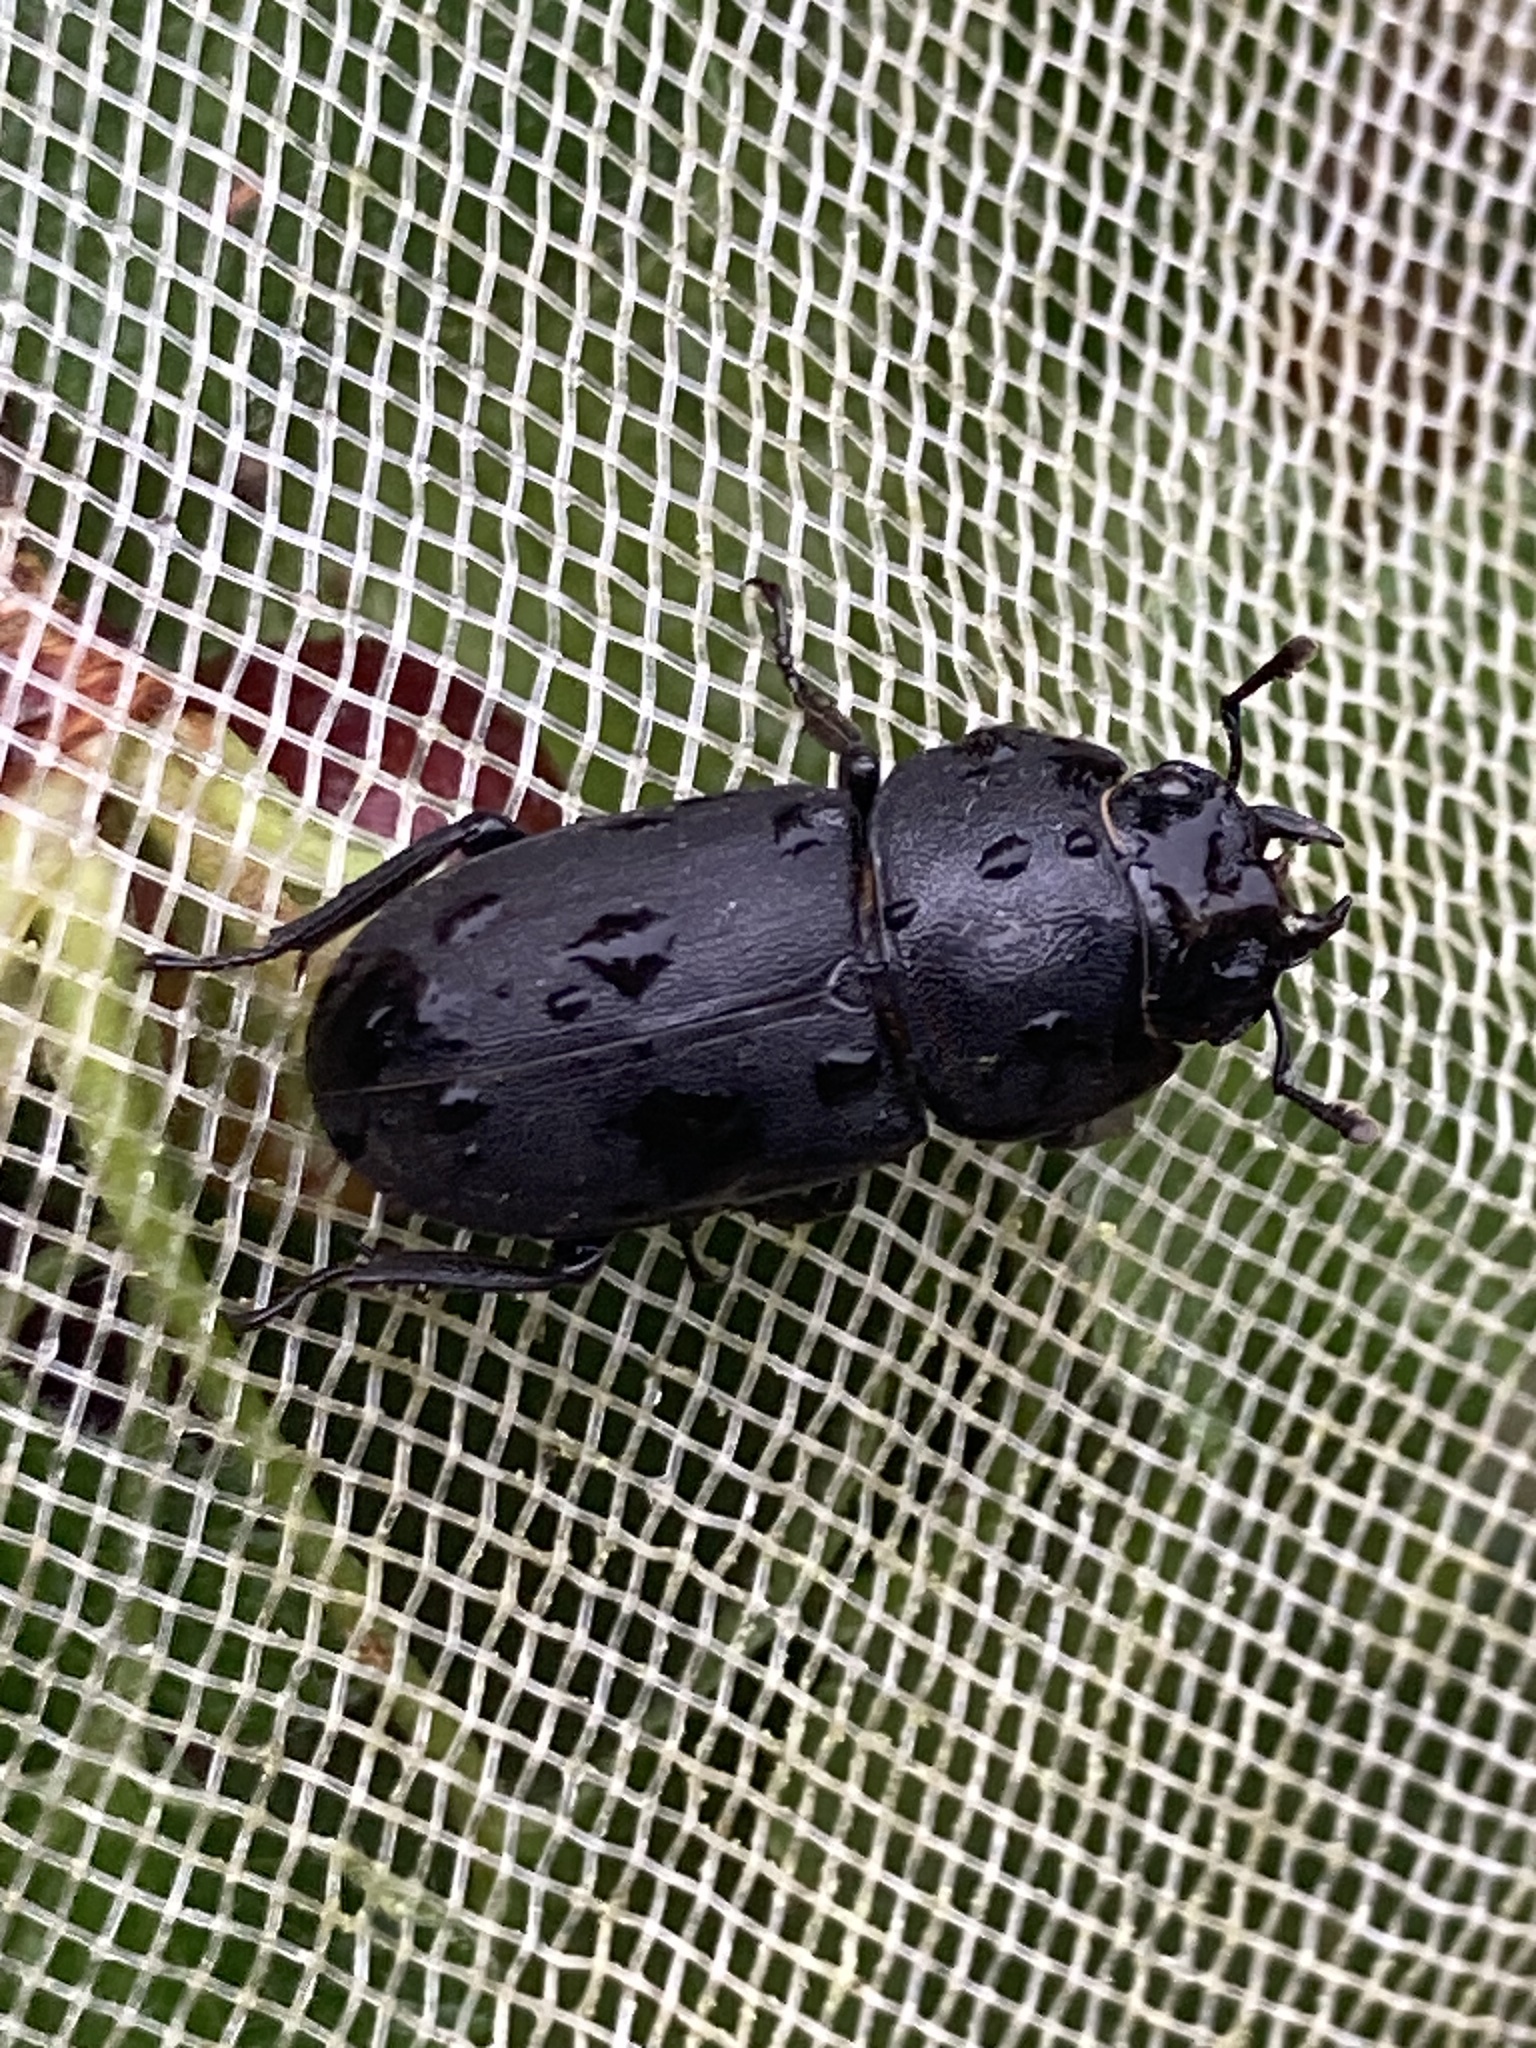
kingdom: Animalia
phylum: Arthropoda
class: Insecta
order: Coleoptera
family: Lucanidae
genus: Dorcus
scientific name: Dorcus parallelipipedus
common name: Lesser stag beetle
